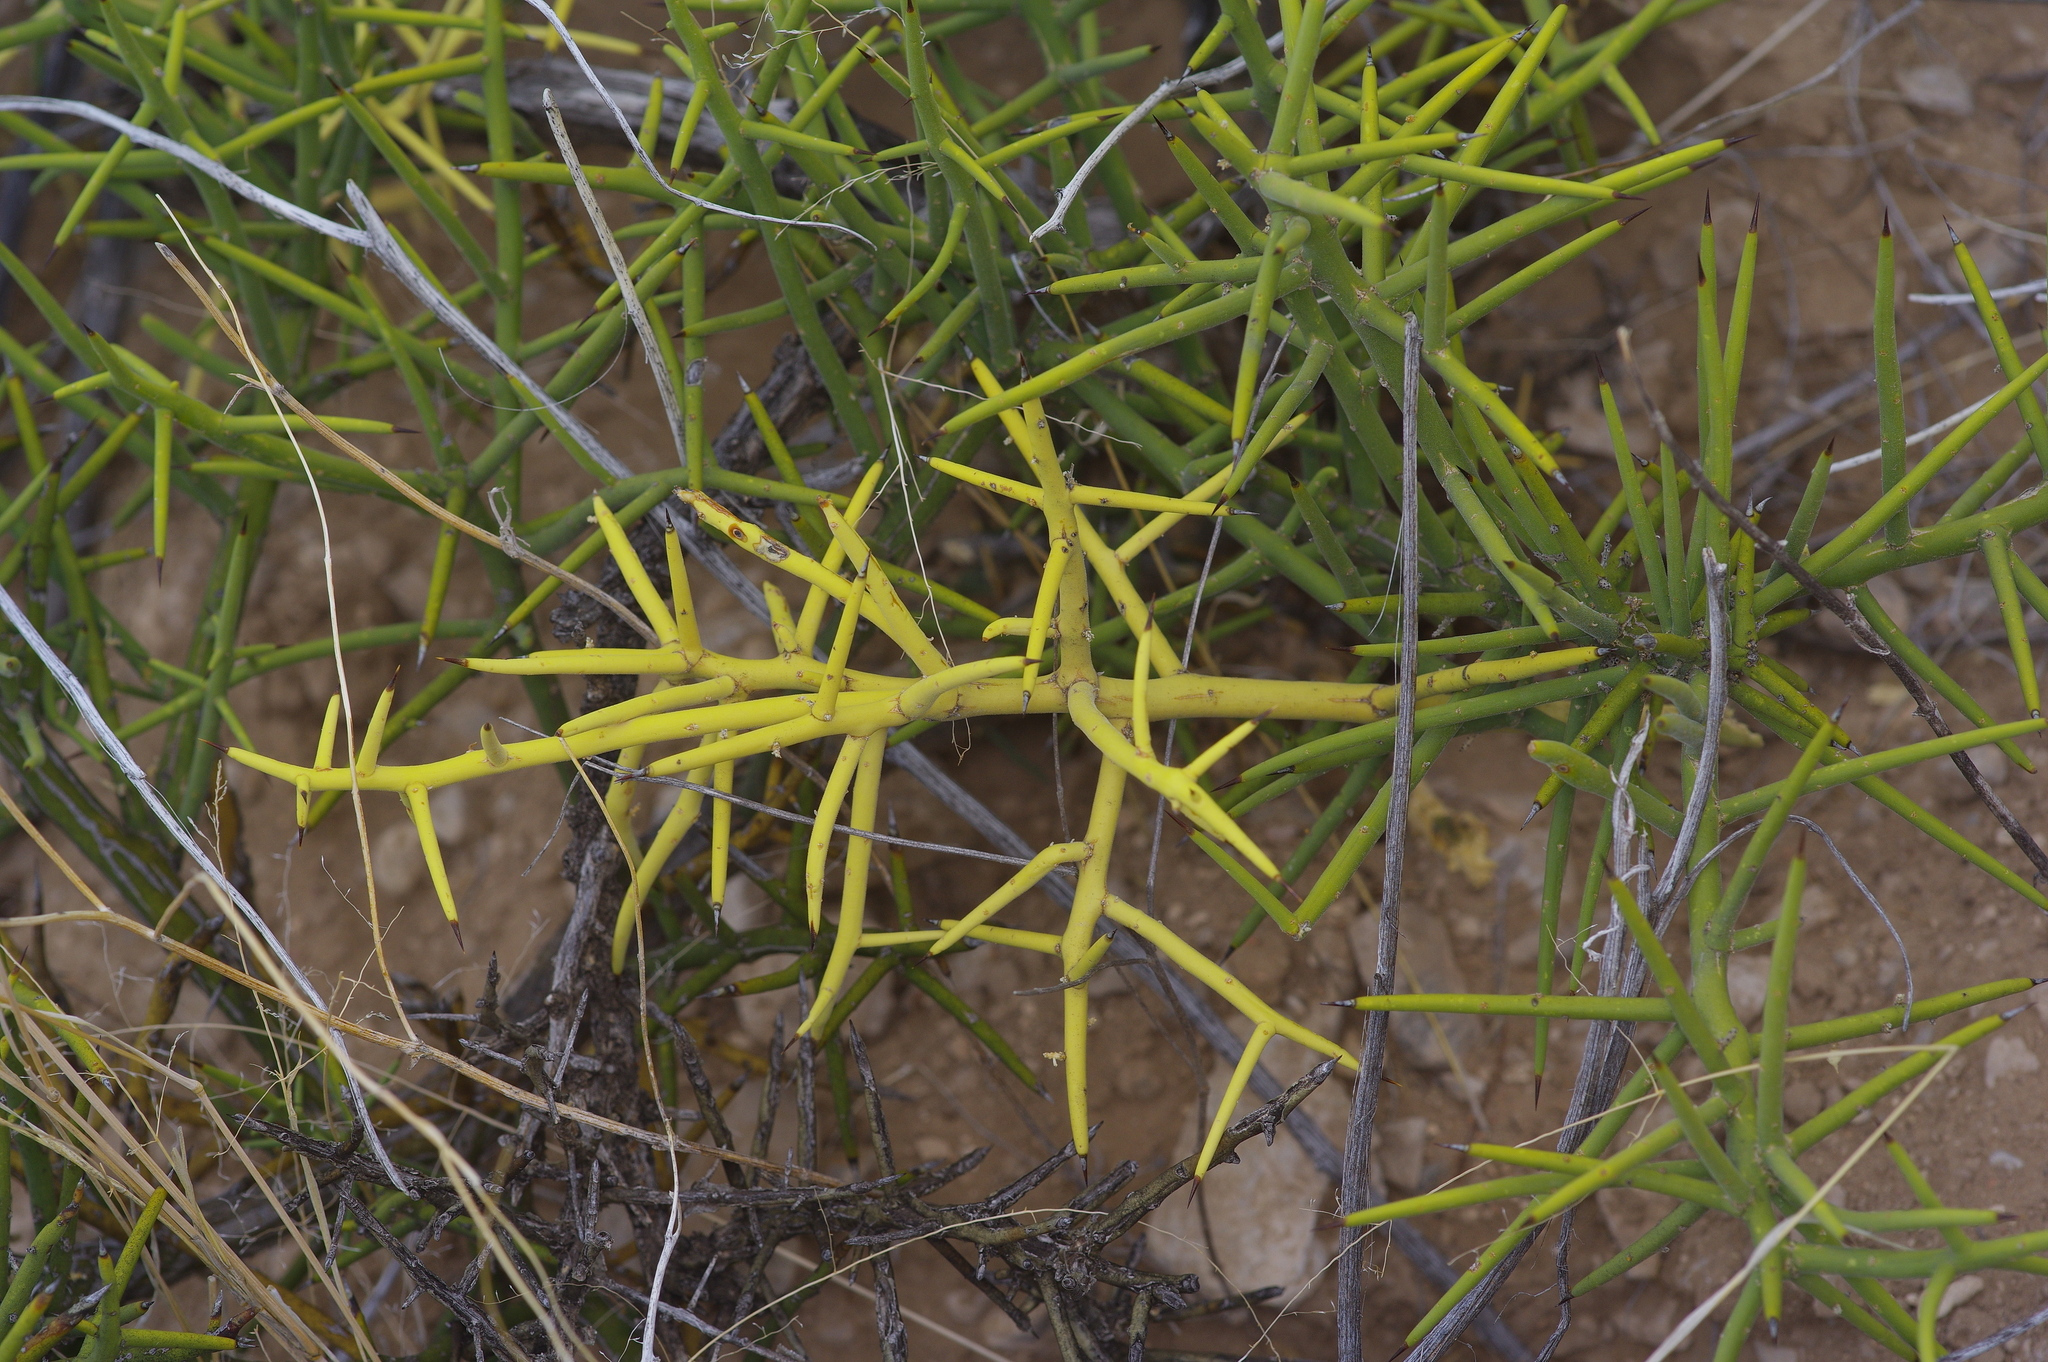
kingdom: Plantae
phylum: Tracheophyta
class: Magnoliopsida
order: Brassicales
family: Koeberliniaceae
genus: Koeberlinia
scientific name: Koeberlinia spinosa
